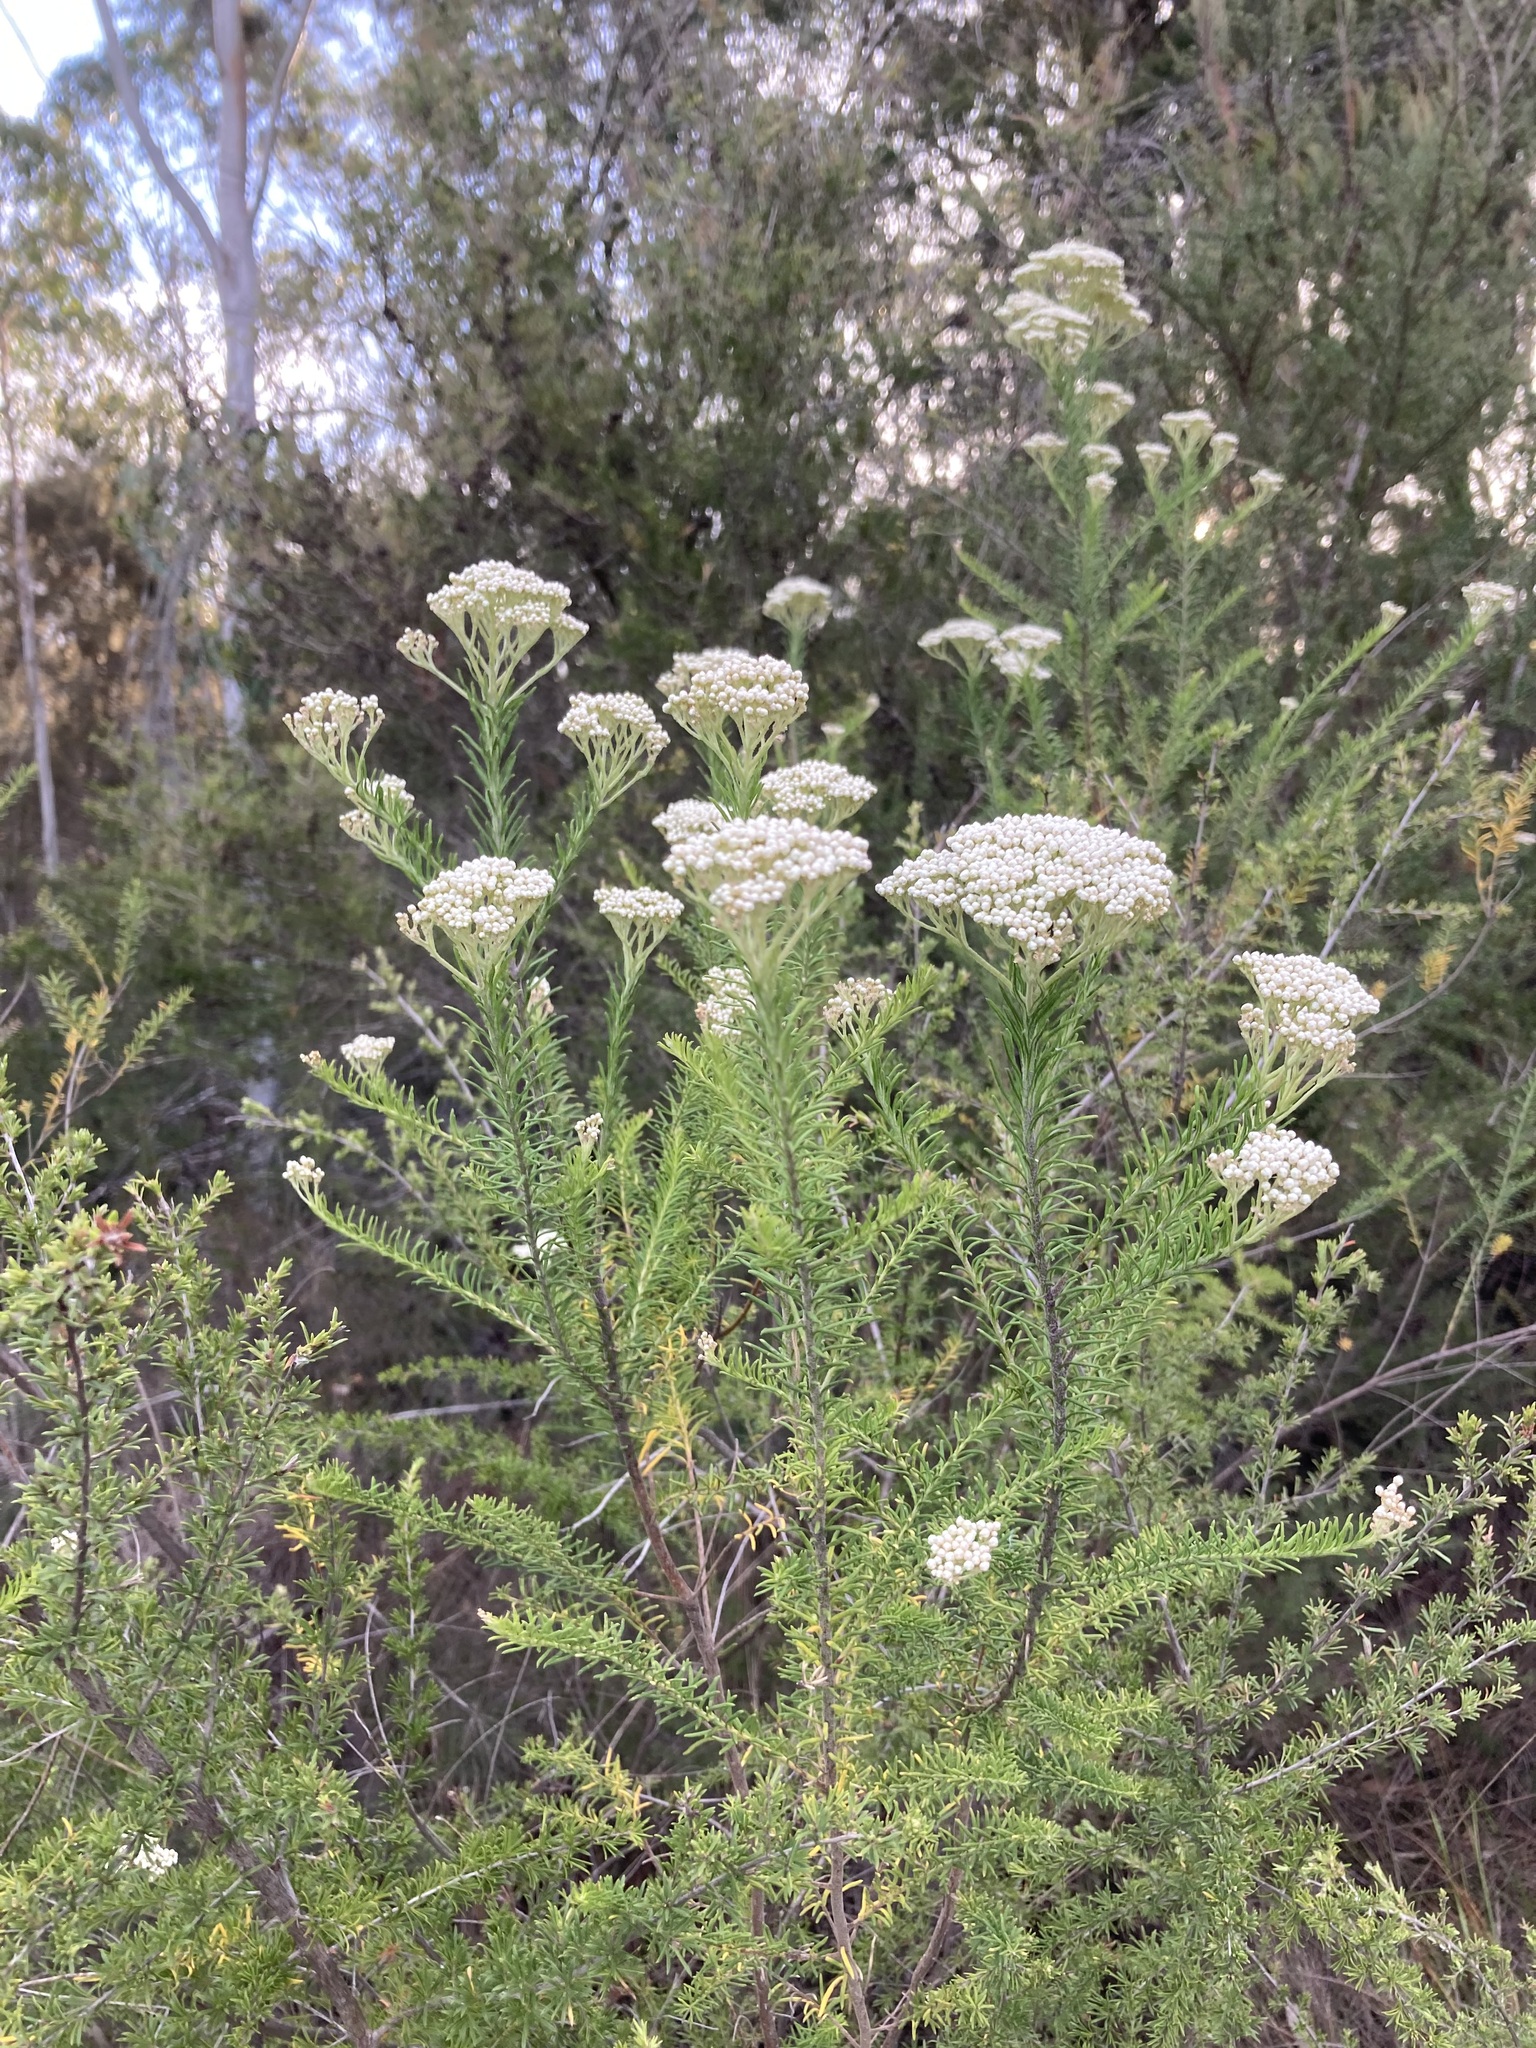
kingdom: Plantae
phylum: Tracheophyta
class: Magnoliopsida
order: Asterales
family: Asteraceae
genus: Ozothamnus
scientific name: Ozothamnus diosmifolius
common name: White-dogwood
